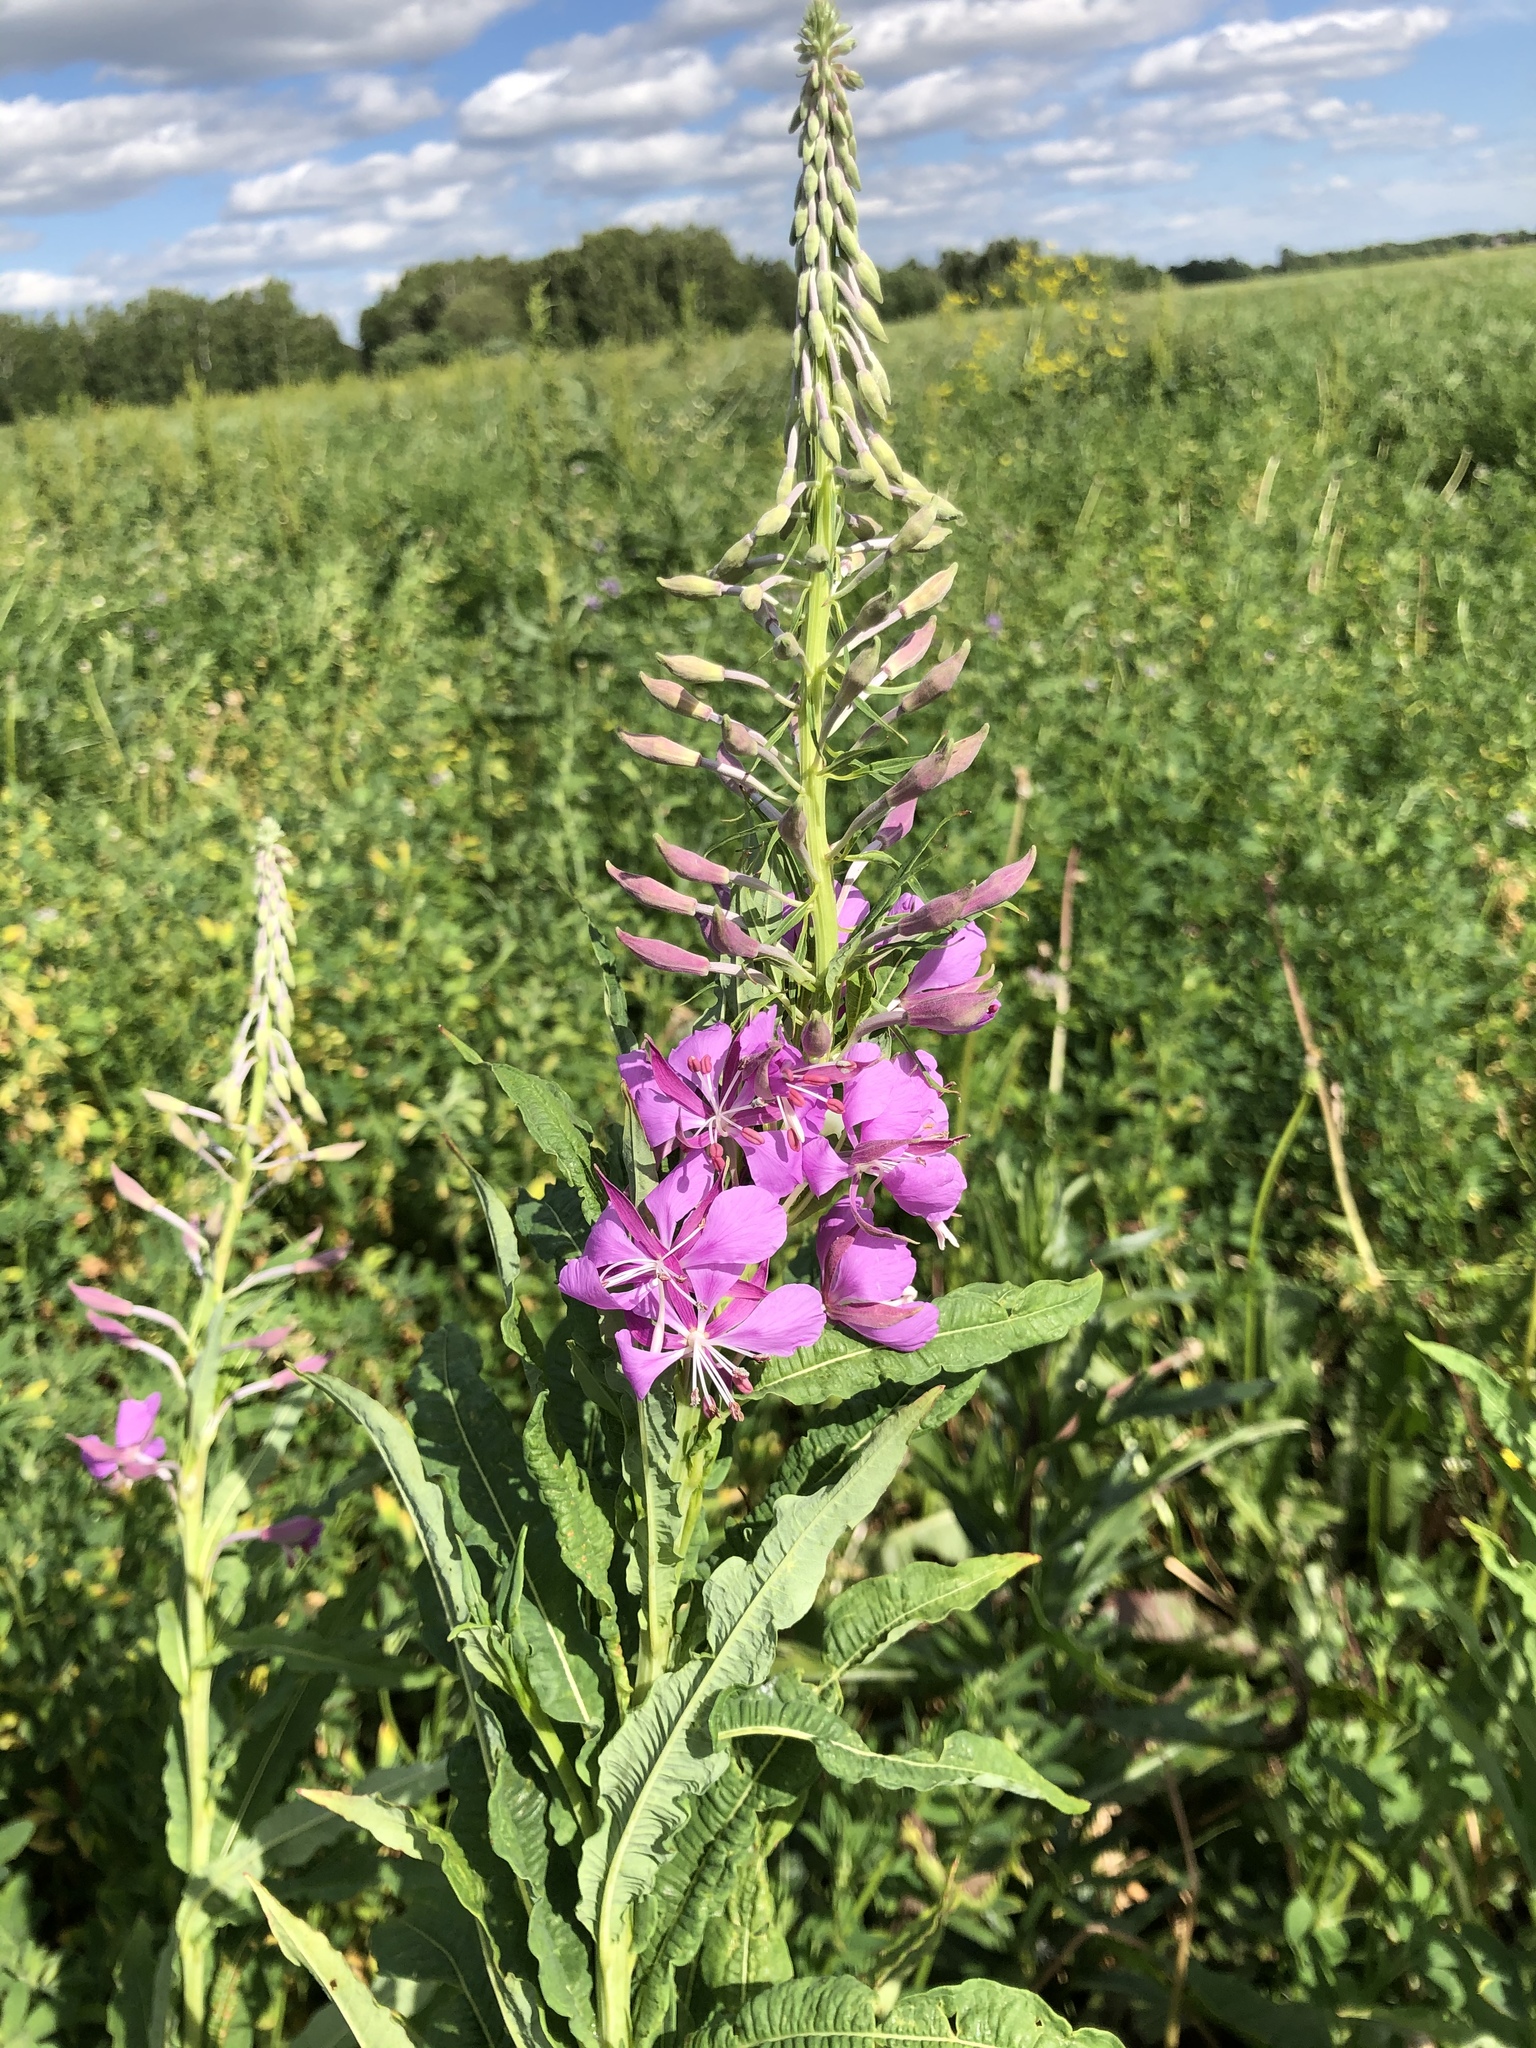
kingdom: Plantae
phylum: Tracheophyta
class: Magnoliopsida
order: Myrtales
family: Onagraceae
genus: Chamaenerion
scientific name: Chamaenerion angustifolium
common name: Fireweed
